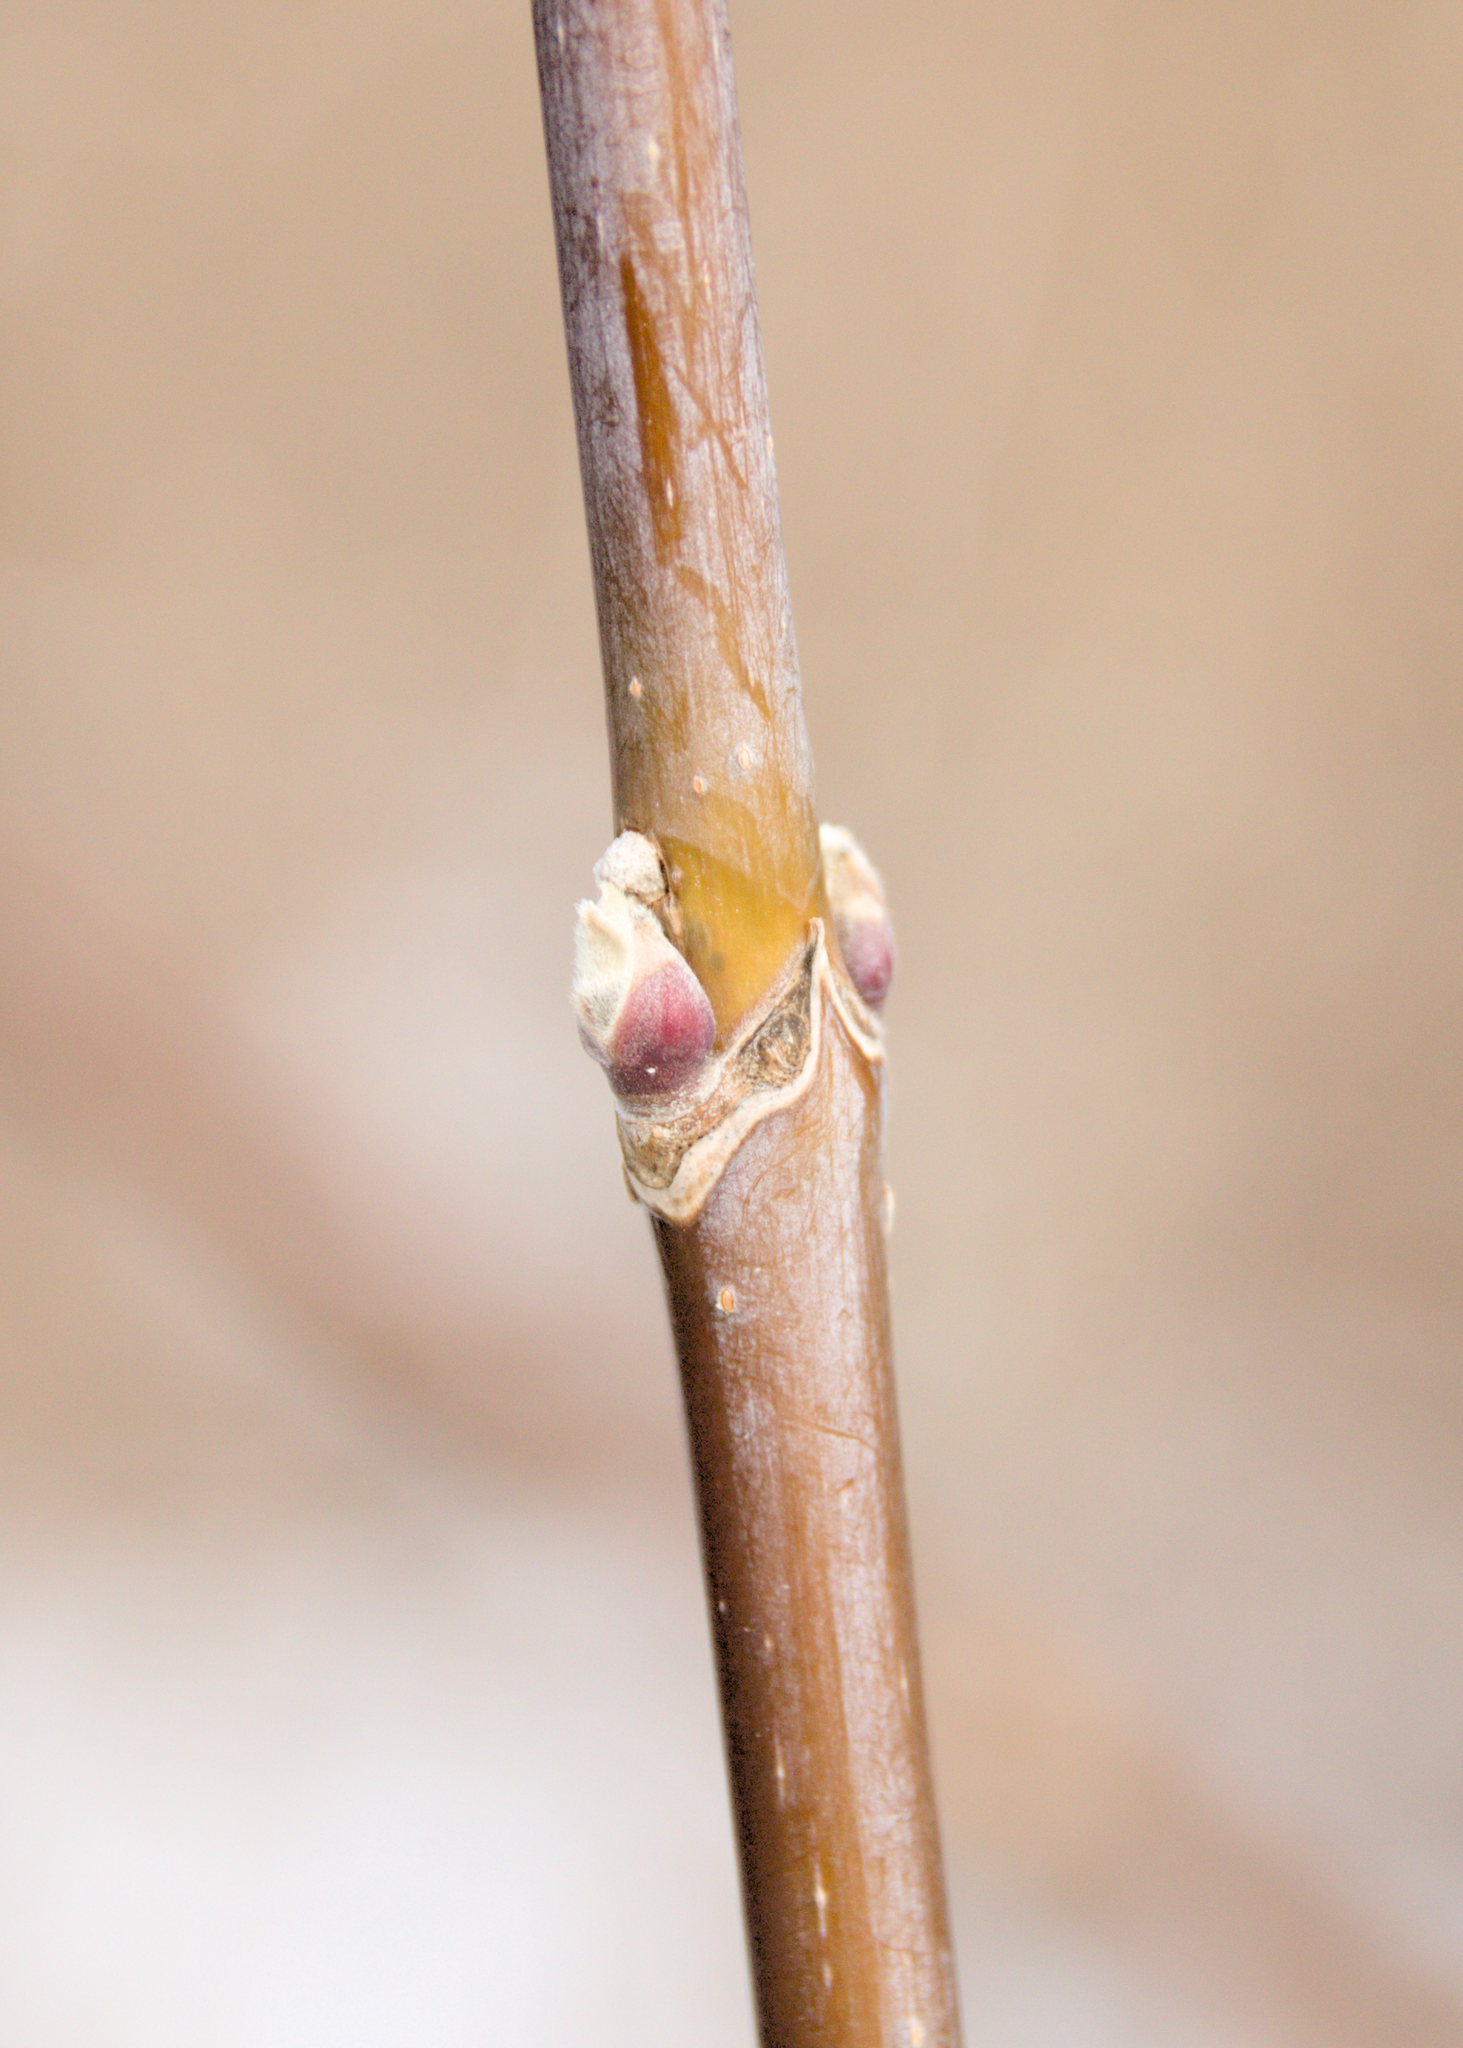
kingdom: Plantae
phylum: Tracheophyta
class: Magnoliopsida
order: Sapindales
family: Sapindaceae
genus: Acer
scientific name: Acer negundo
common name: Ashleaf maple
